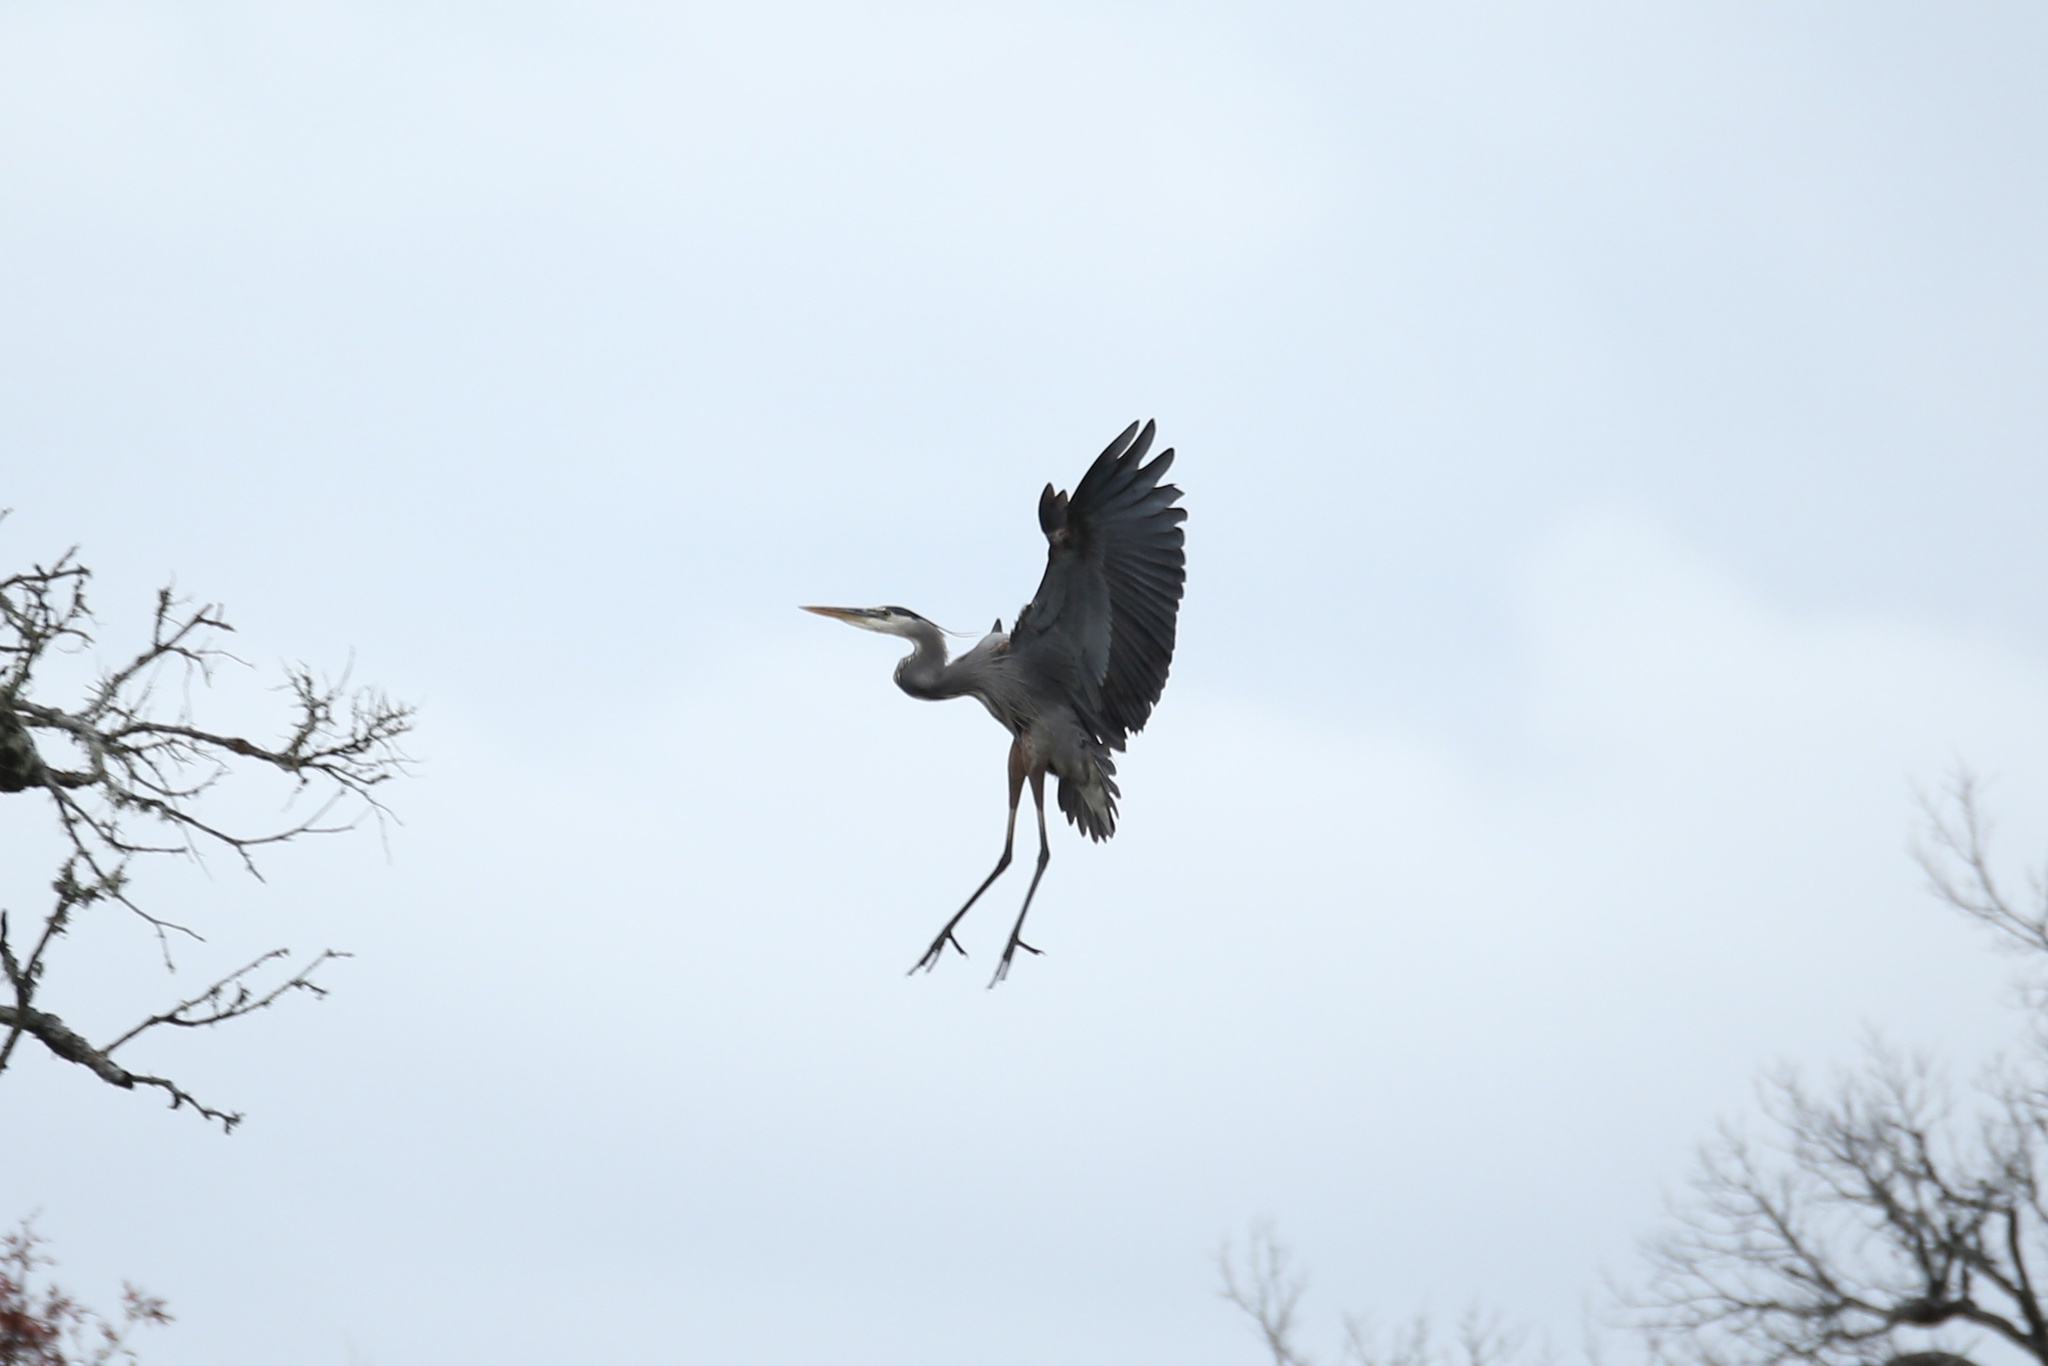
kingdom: Animalia
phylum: Chordata
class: Aves
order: Pelecaniformes
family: Ardeidae
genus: Ardea
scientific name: Ardea herodias
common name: Great blue heron
